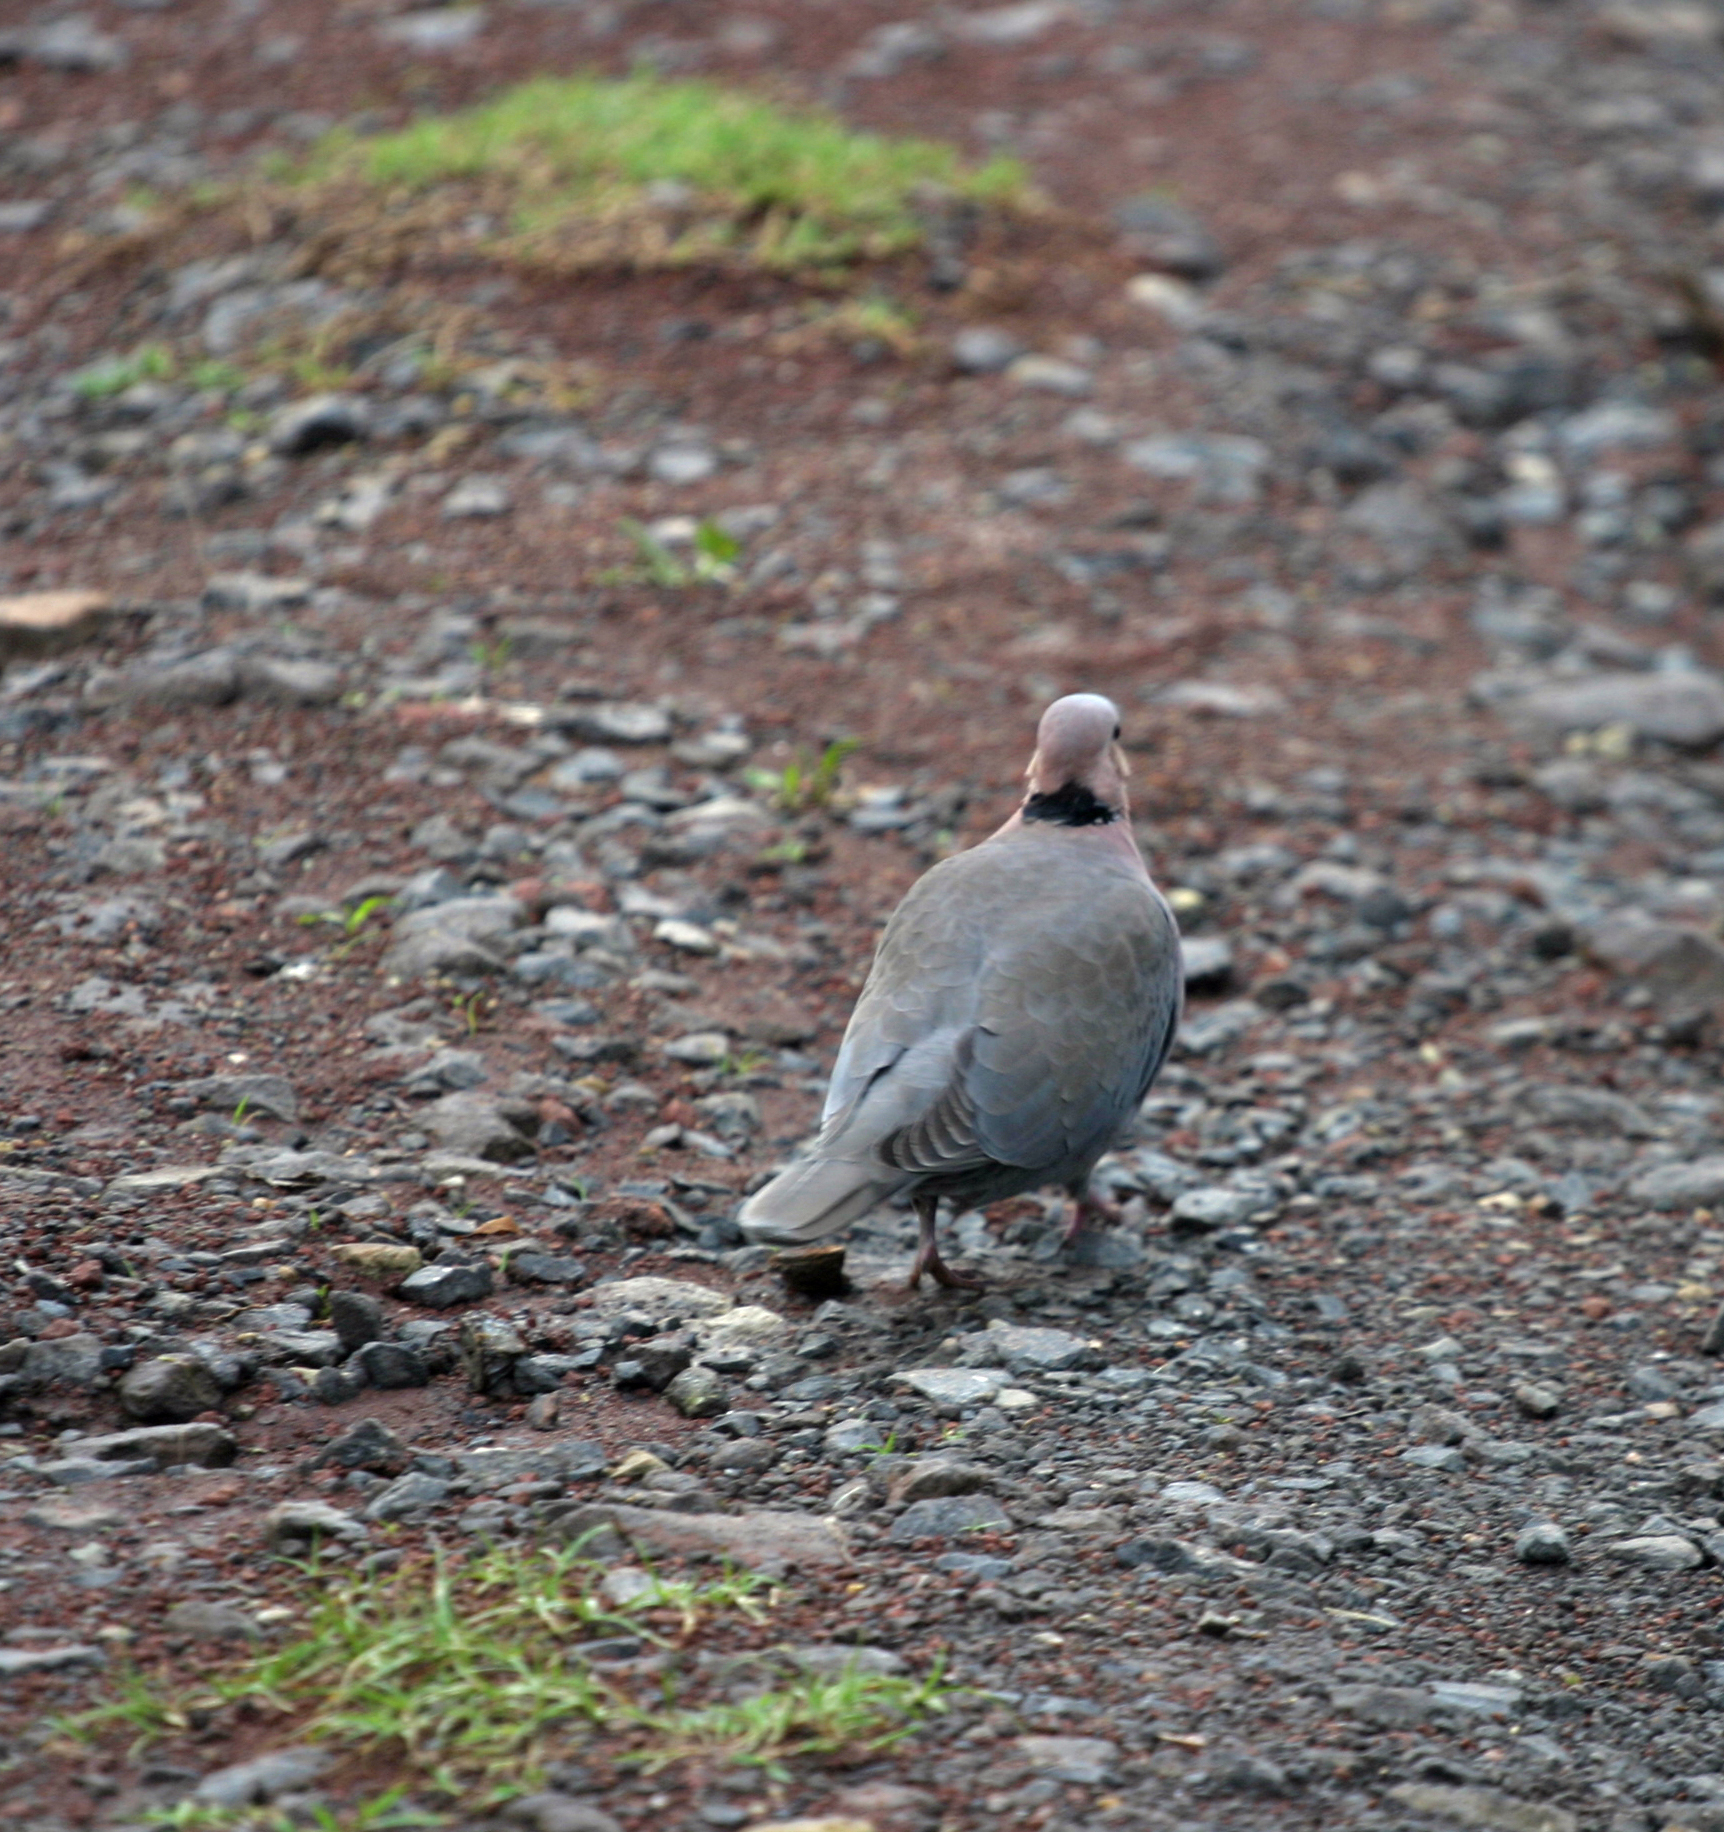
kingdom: Animalia
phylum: Chordata
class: Aves
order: Columbiformes
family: Columbidae
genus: Streptopelia
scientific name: Streptopelia semitorquata
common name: Red-eyed dove
